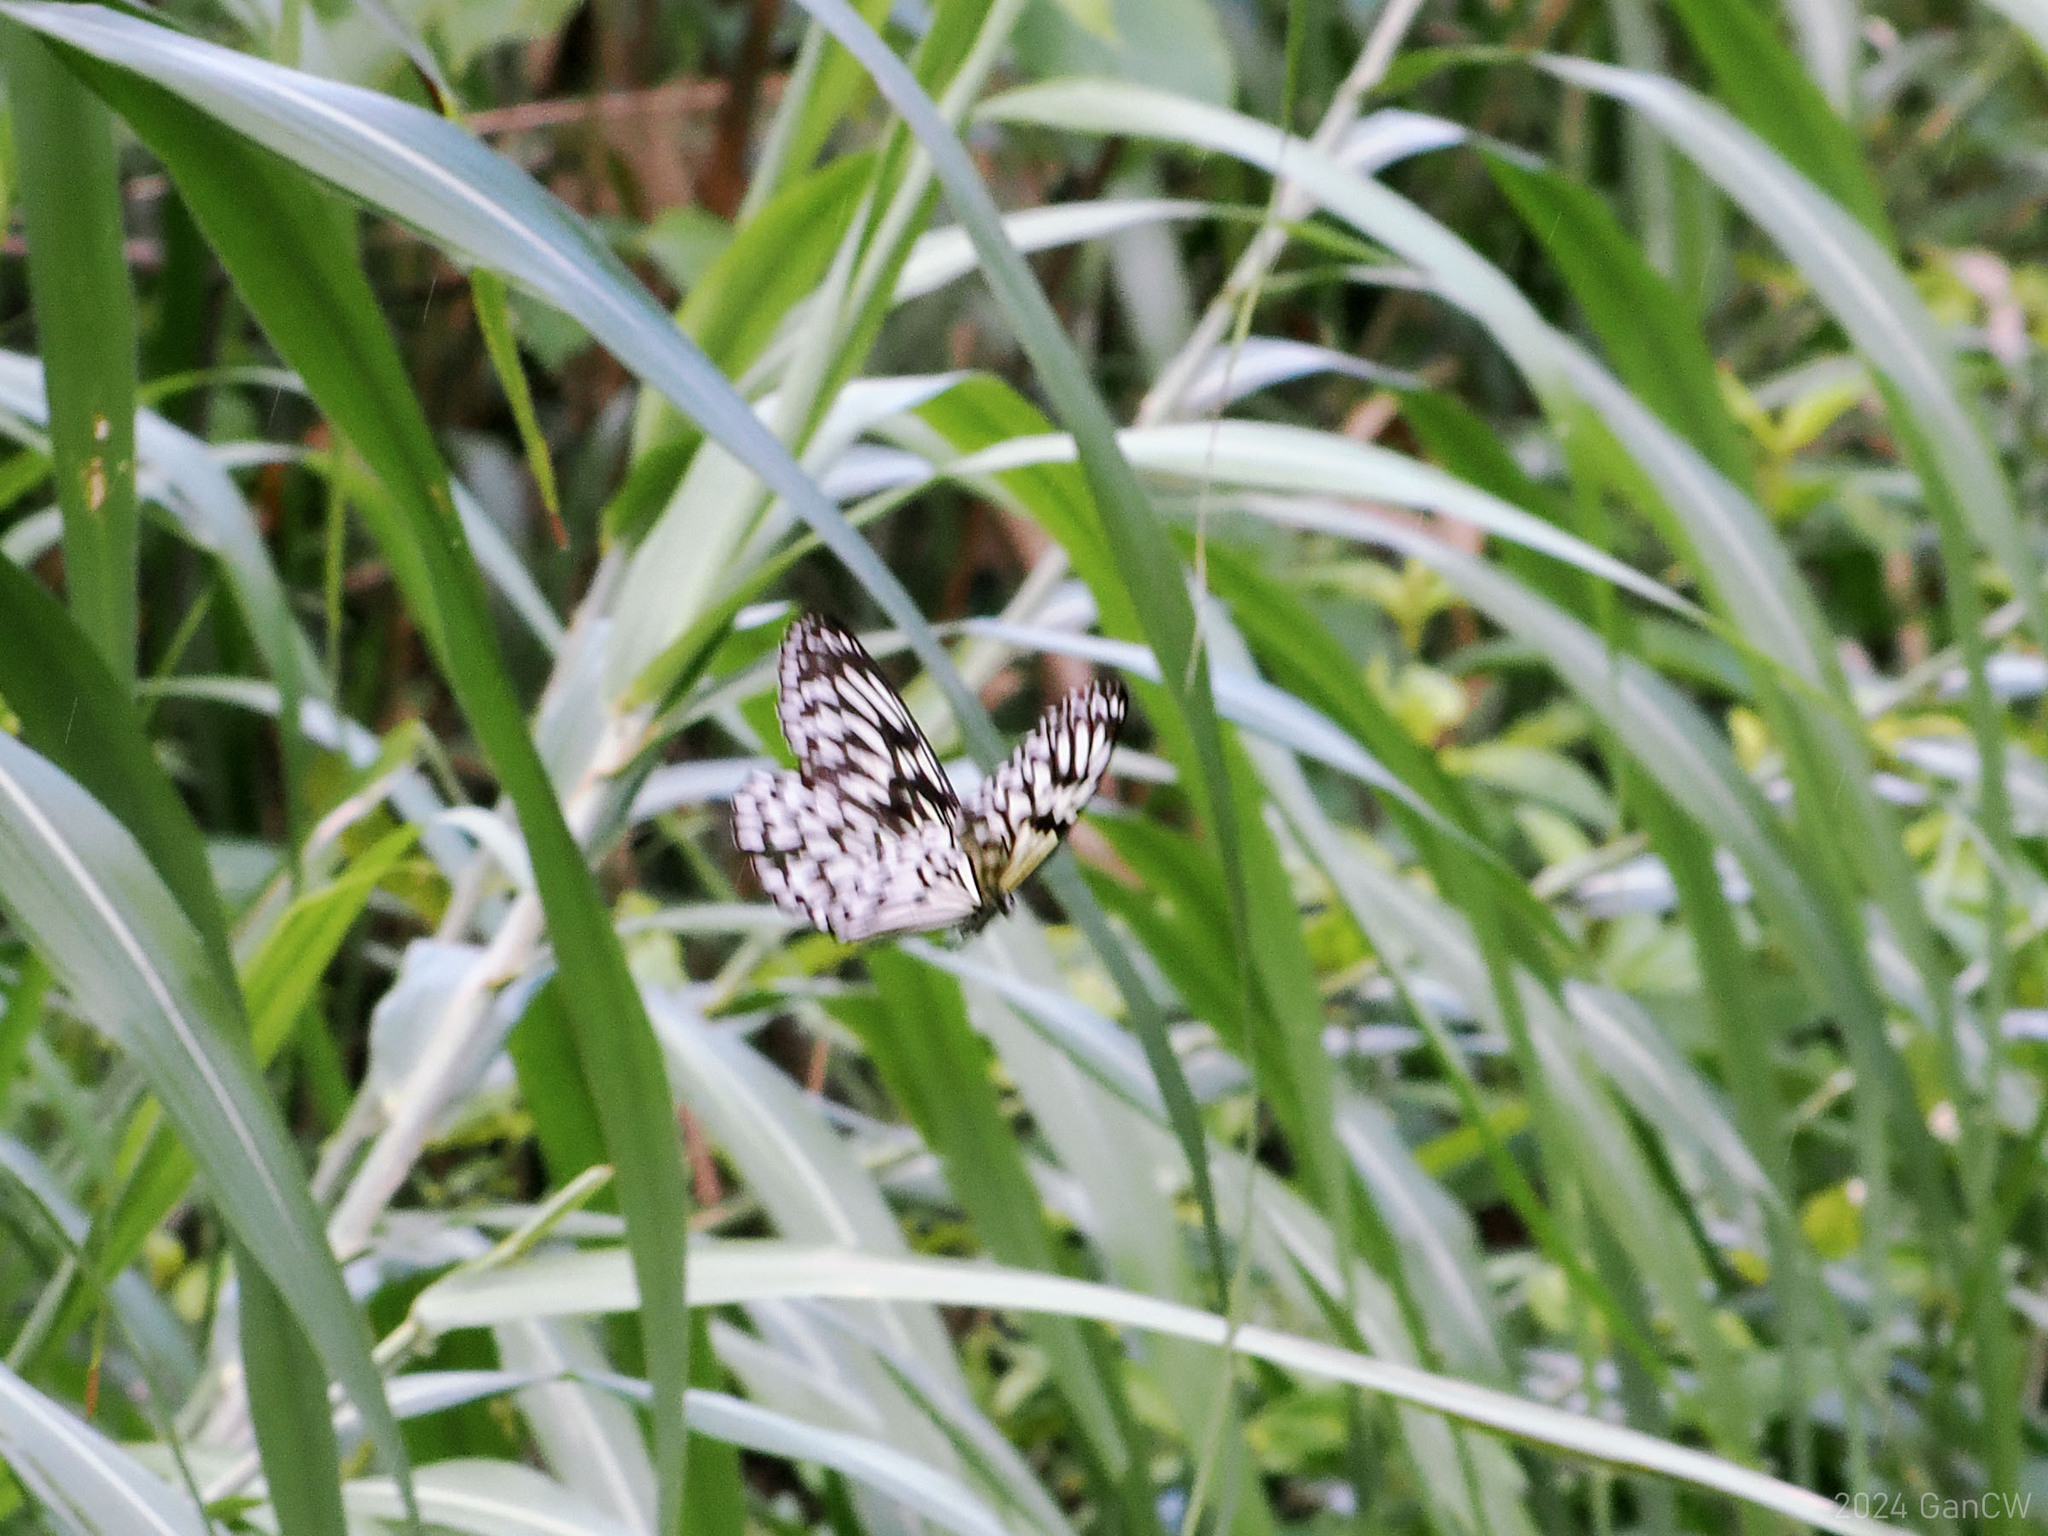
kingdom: Animalia
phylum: Arthropoda
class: Insecta
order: Lepidoptera
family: Nymphalidae
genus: Idea
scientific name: Idea leuconoe
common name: Rice paper butterfly
